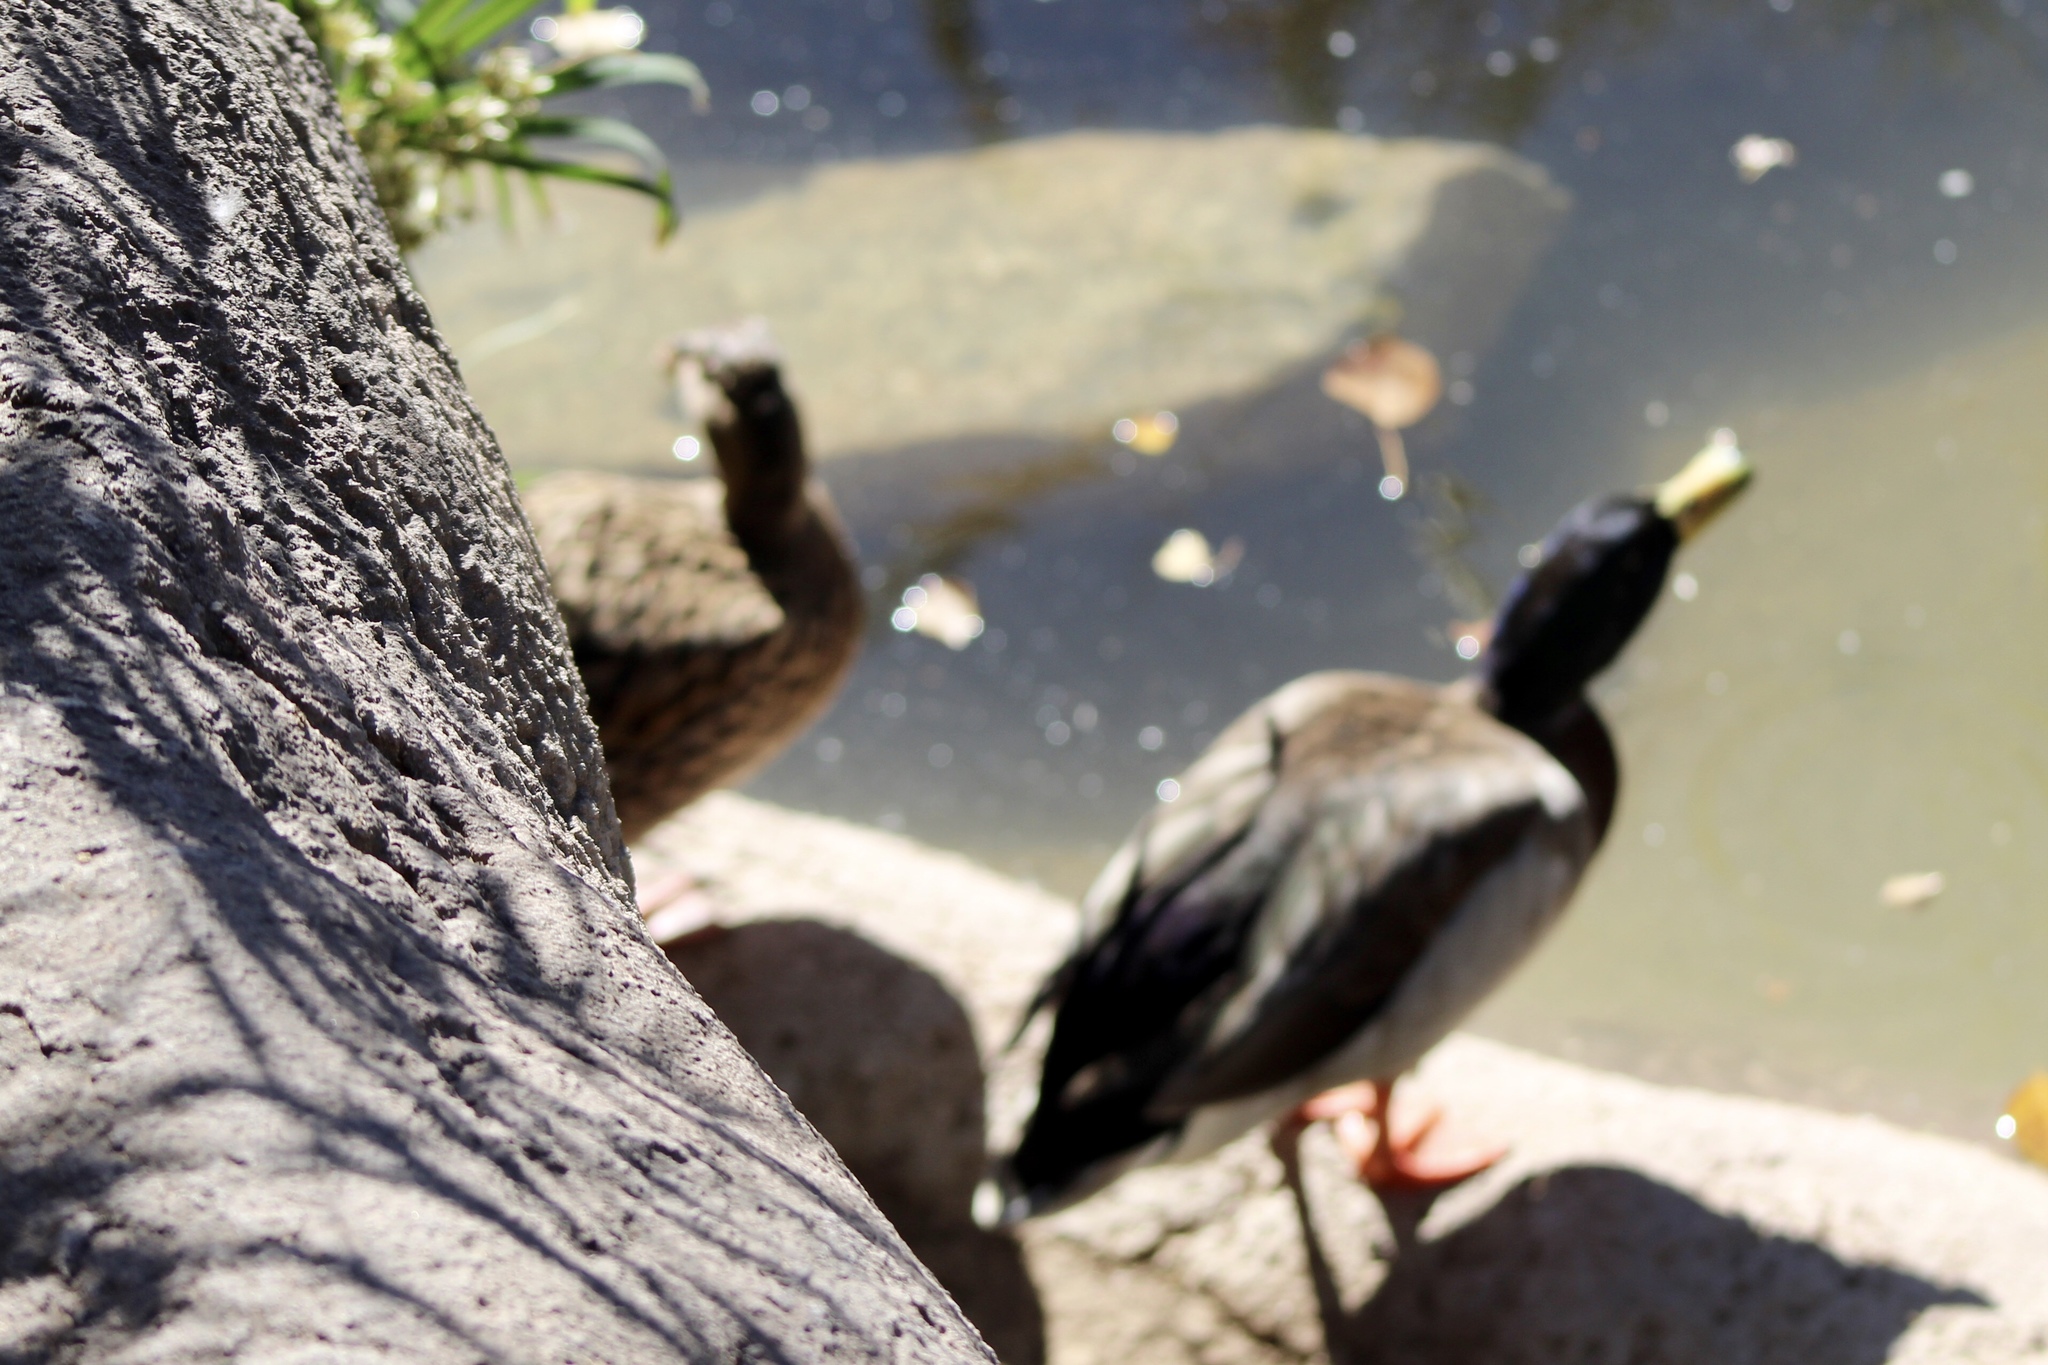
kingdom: Animalia
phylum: Chordata
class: Aves
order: Anseriformes
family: Anatidae
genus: Anas
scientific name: Anas platyrhynchos
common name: Mallard
